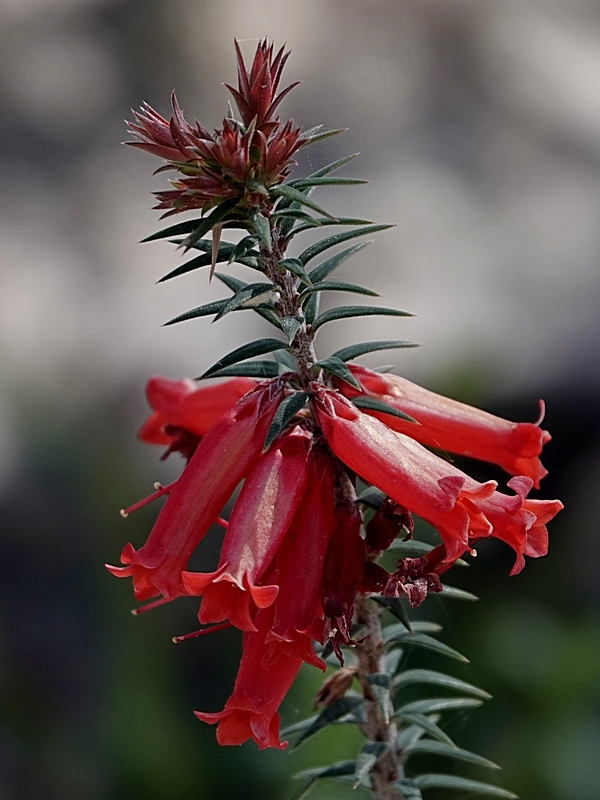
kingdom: Plantae
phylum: Tracheophyta
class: Magnoliopsida
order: Ericales
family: Ericaceae
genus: Epacris
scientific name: Epacris impressa
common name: Common-heath
